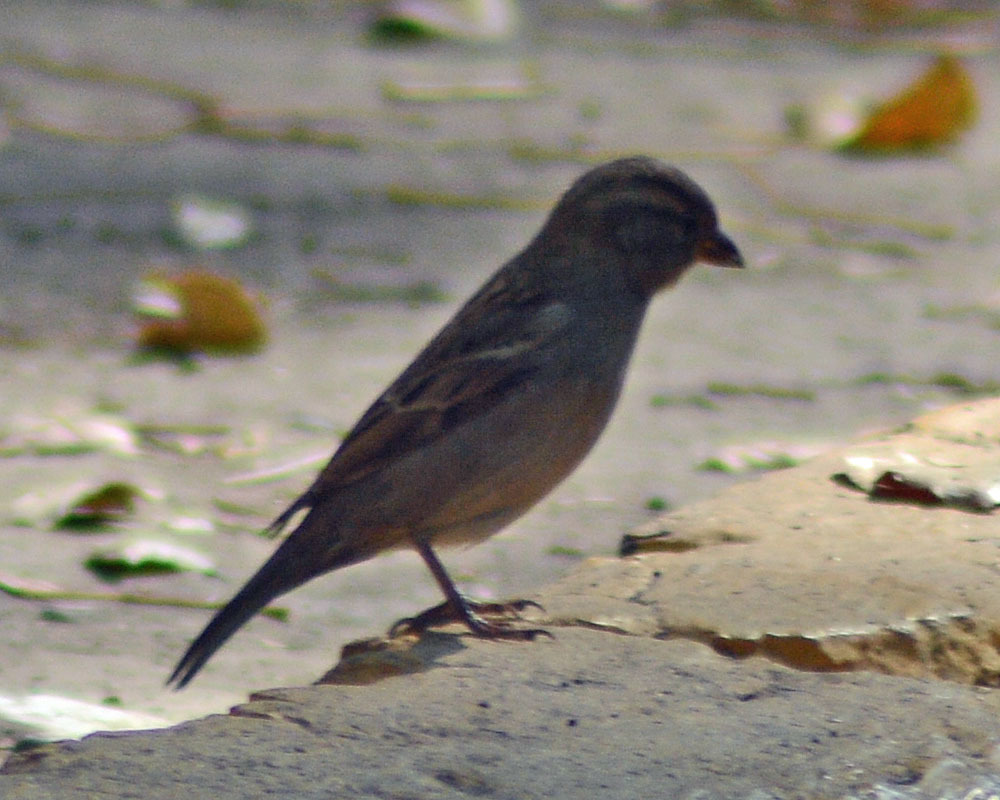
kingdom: Animalia
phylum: Chordata
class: Aves
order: Passeriformes
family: Passeridae
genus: Passer
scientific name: Passer domesticus
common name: House sparrow
